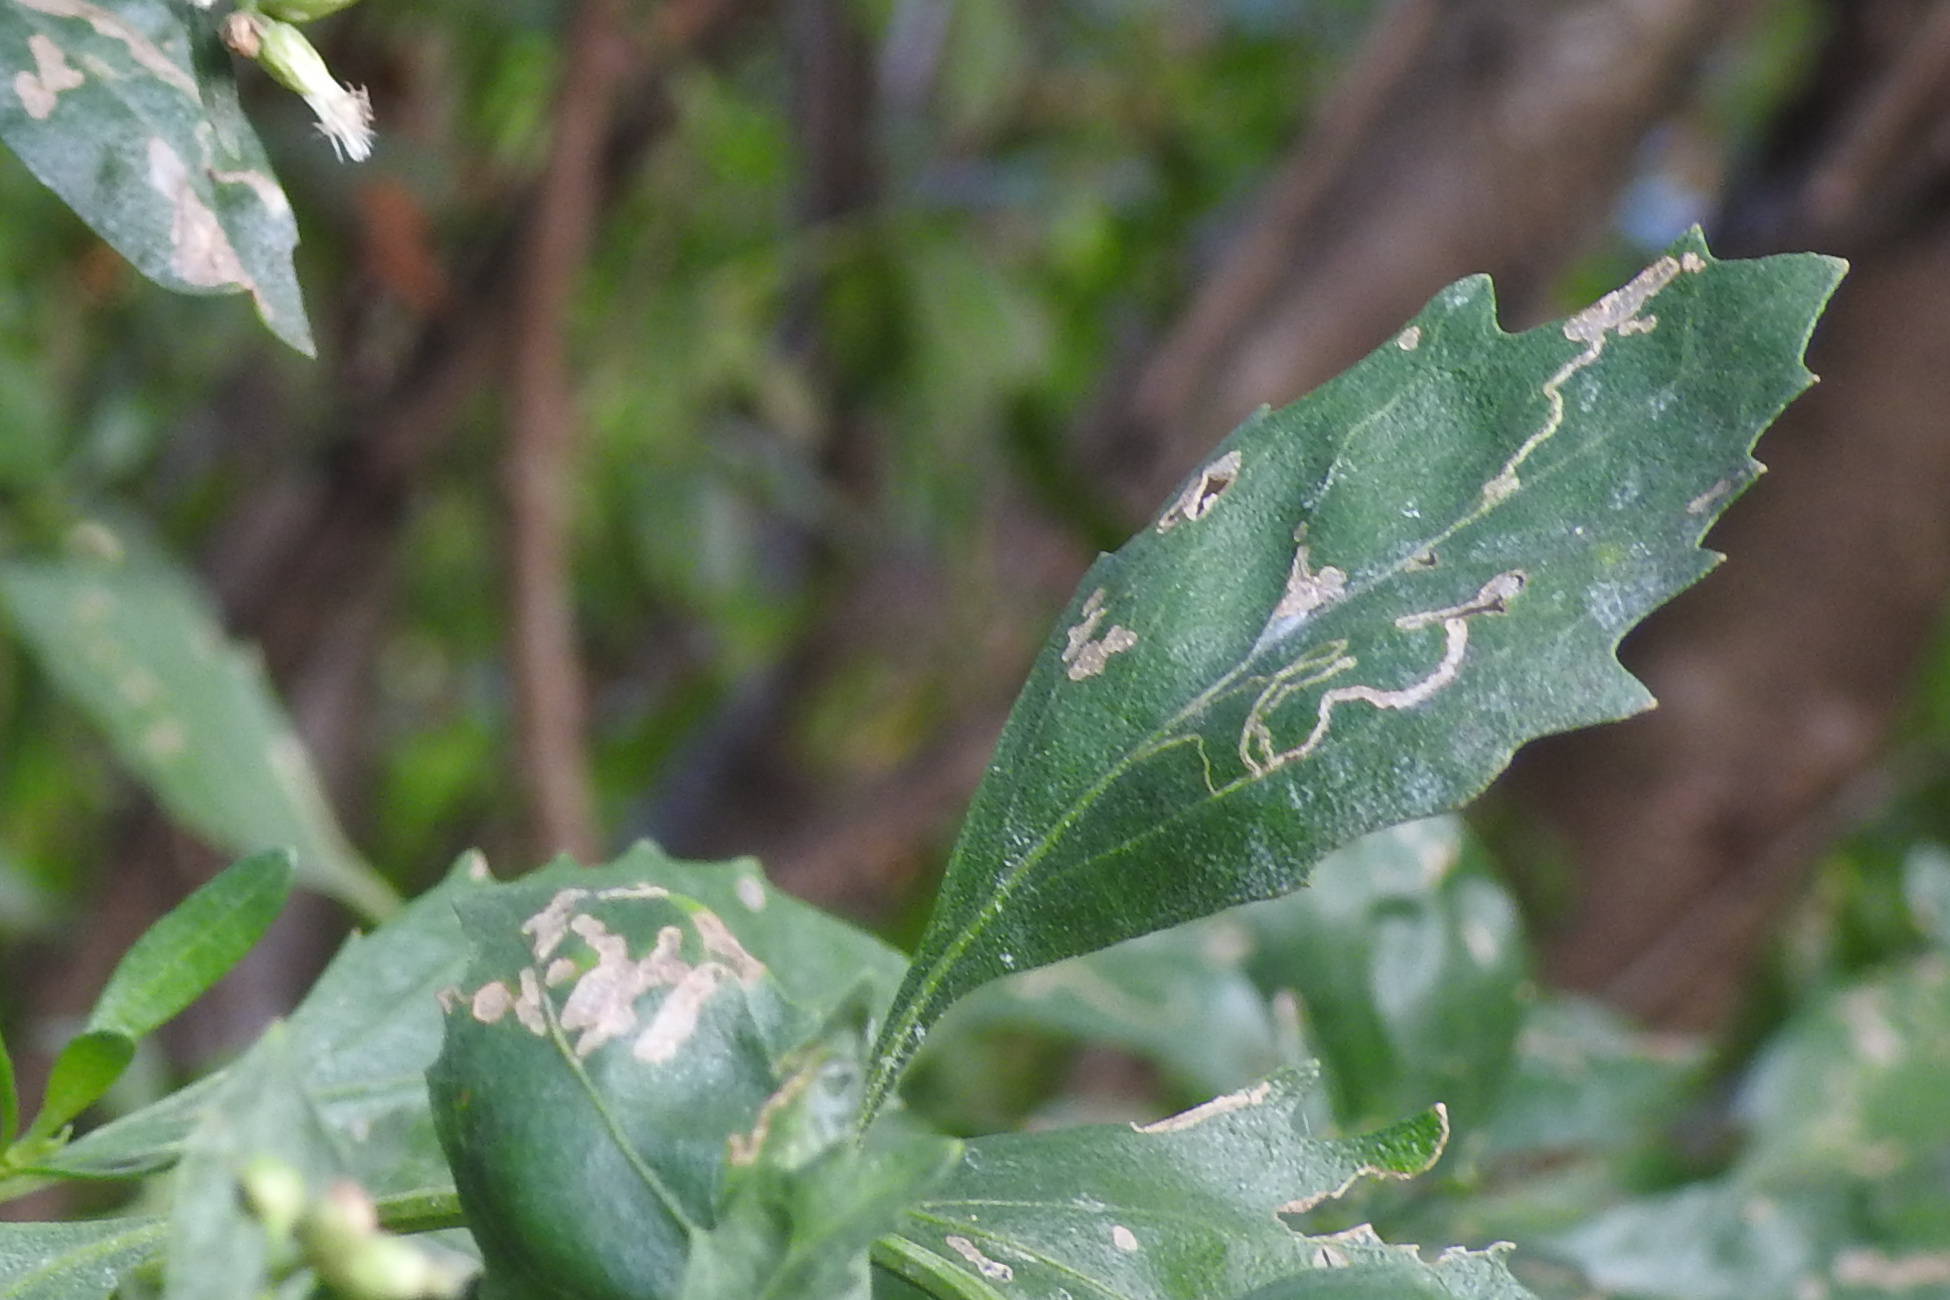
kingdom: Animalia
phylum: Arthropoda
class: Insecta
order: Lepidoptera
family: Bucculatricidae
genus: Bucculatrix
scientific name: Bucculatrix ivella
